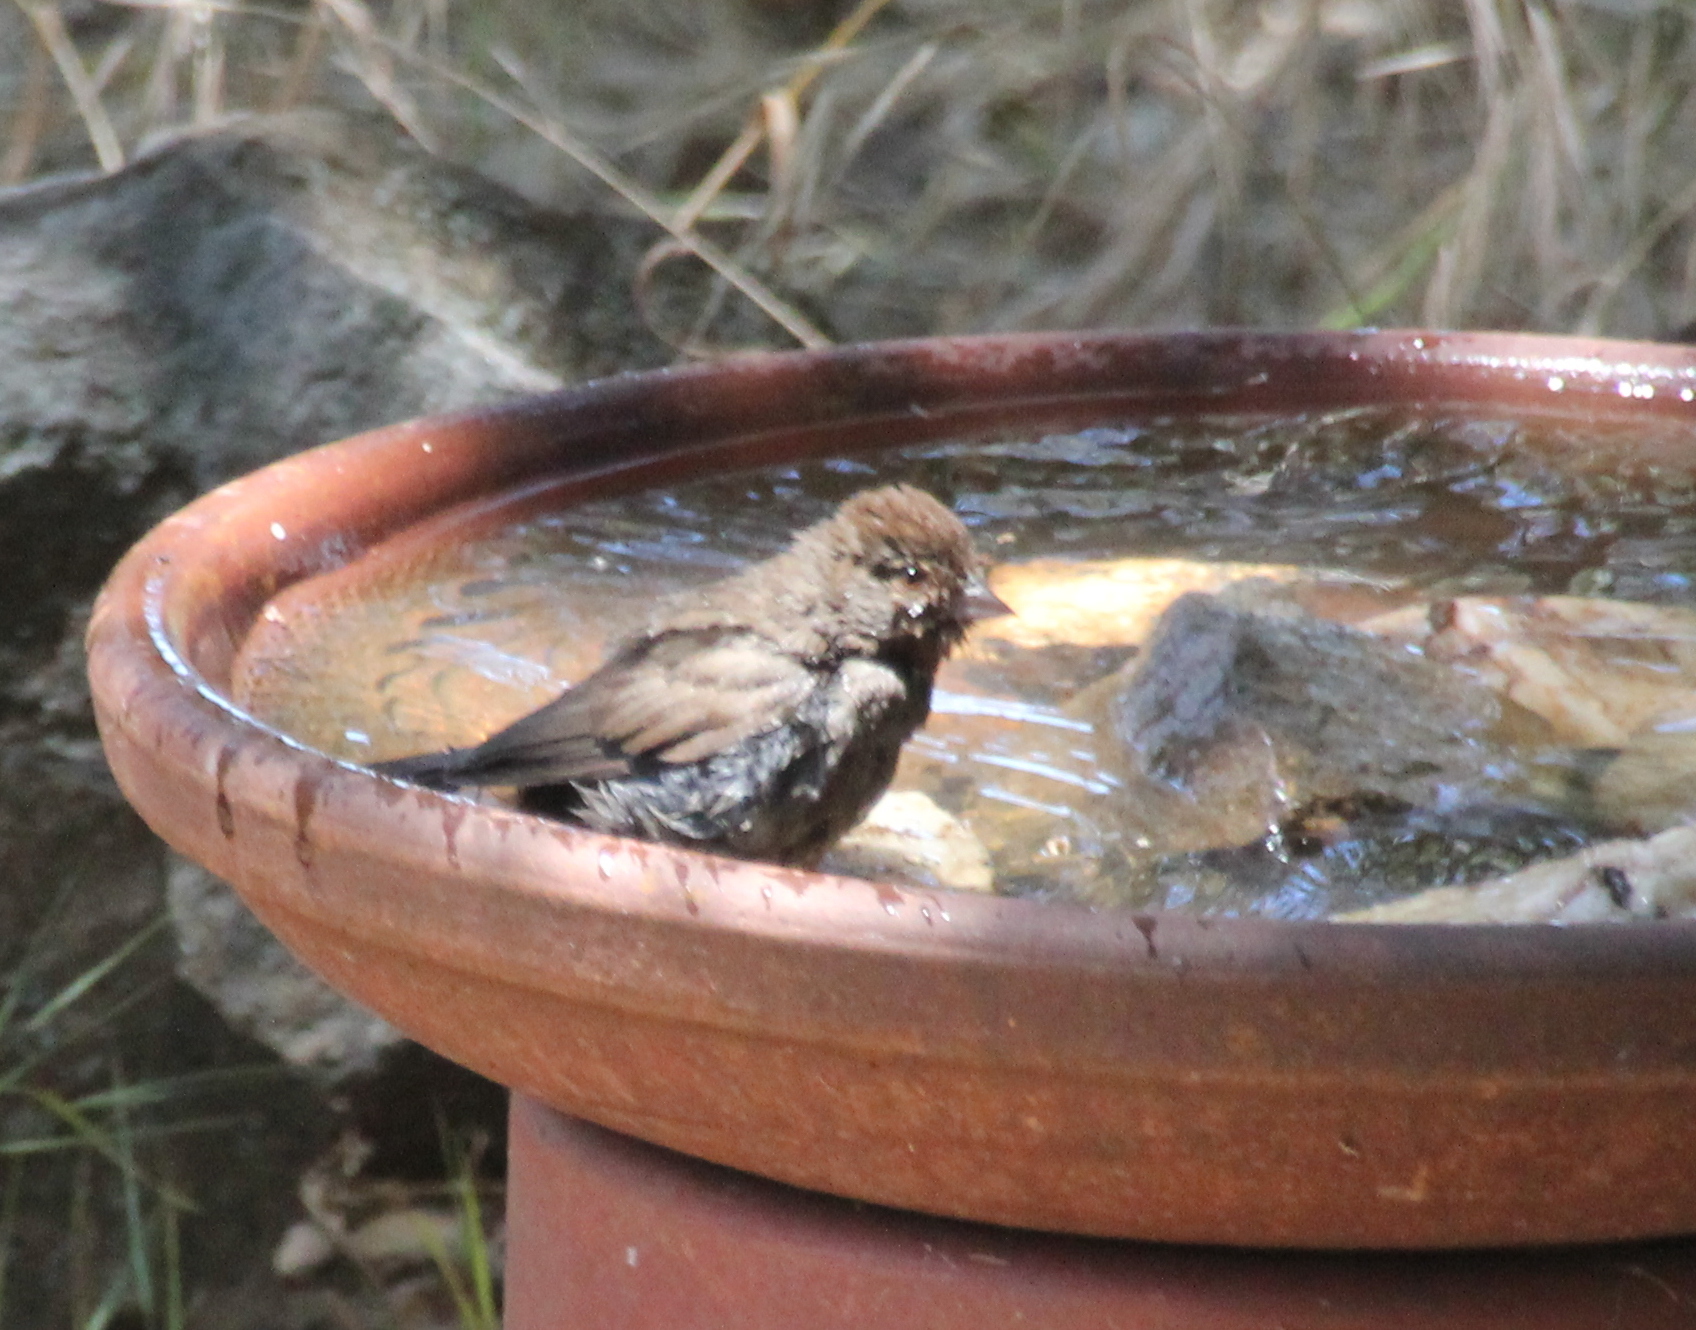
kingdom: Animalia
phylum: Chordata
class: Aves
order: Passeriformes
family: Passerellidae
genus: Melozone
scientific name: Melozone crissalis
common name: California towhee
